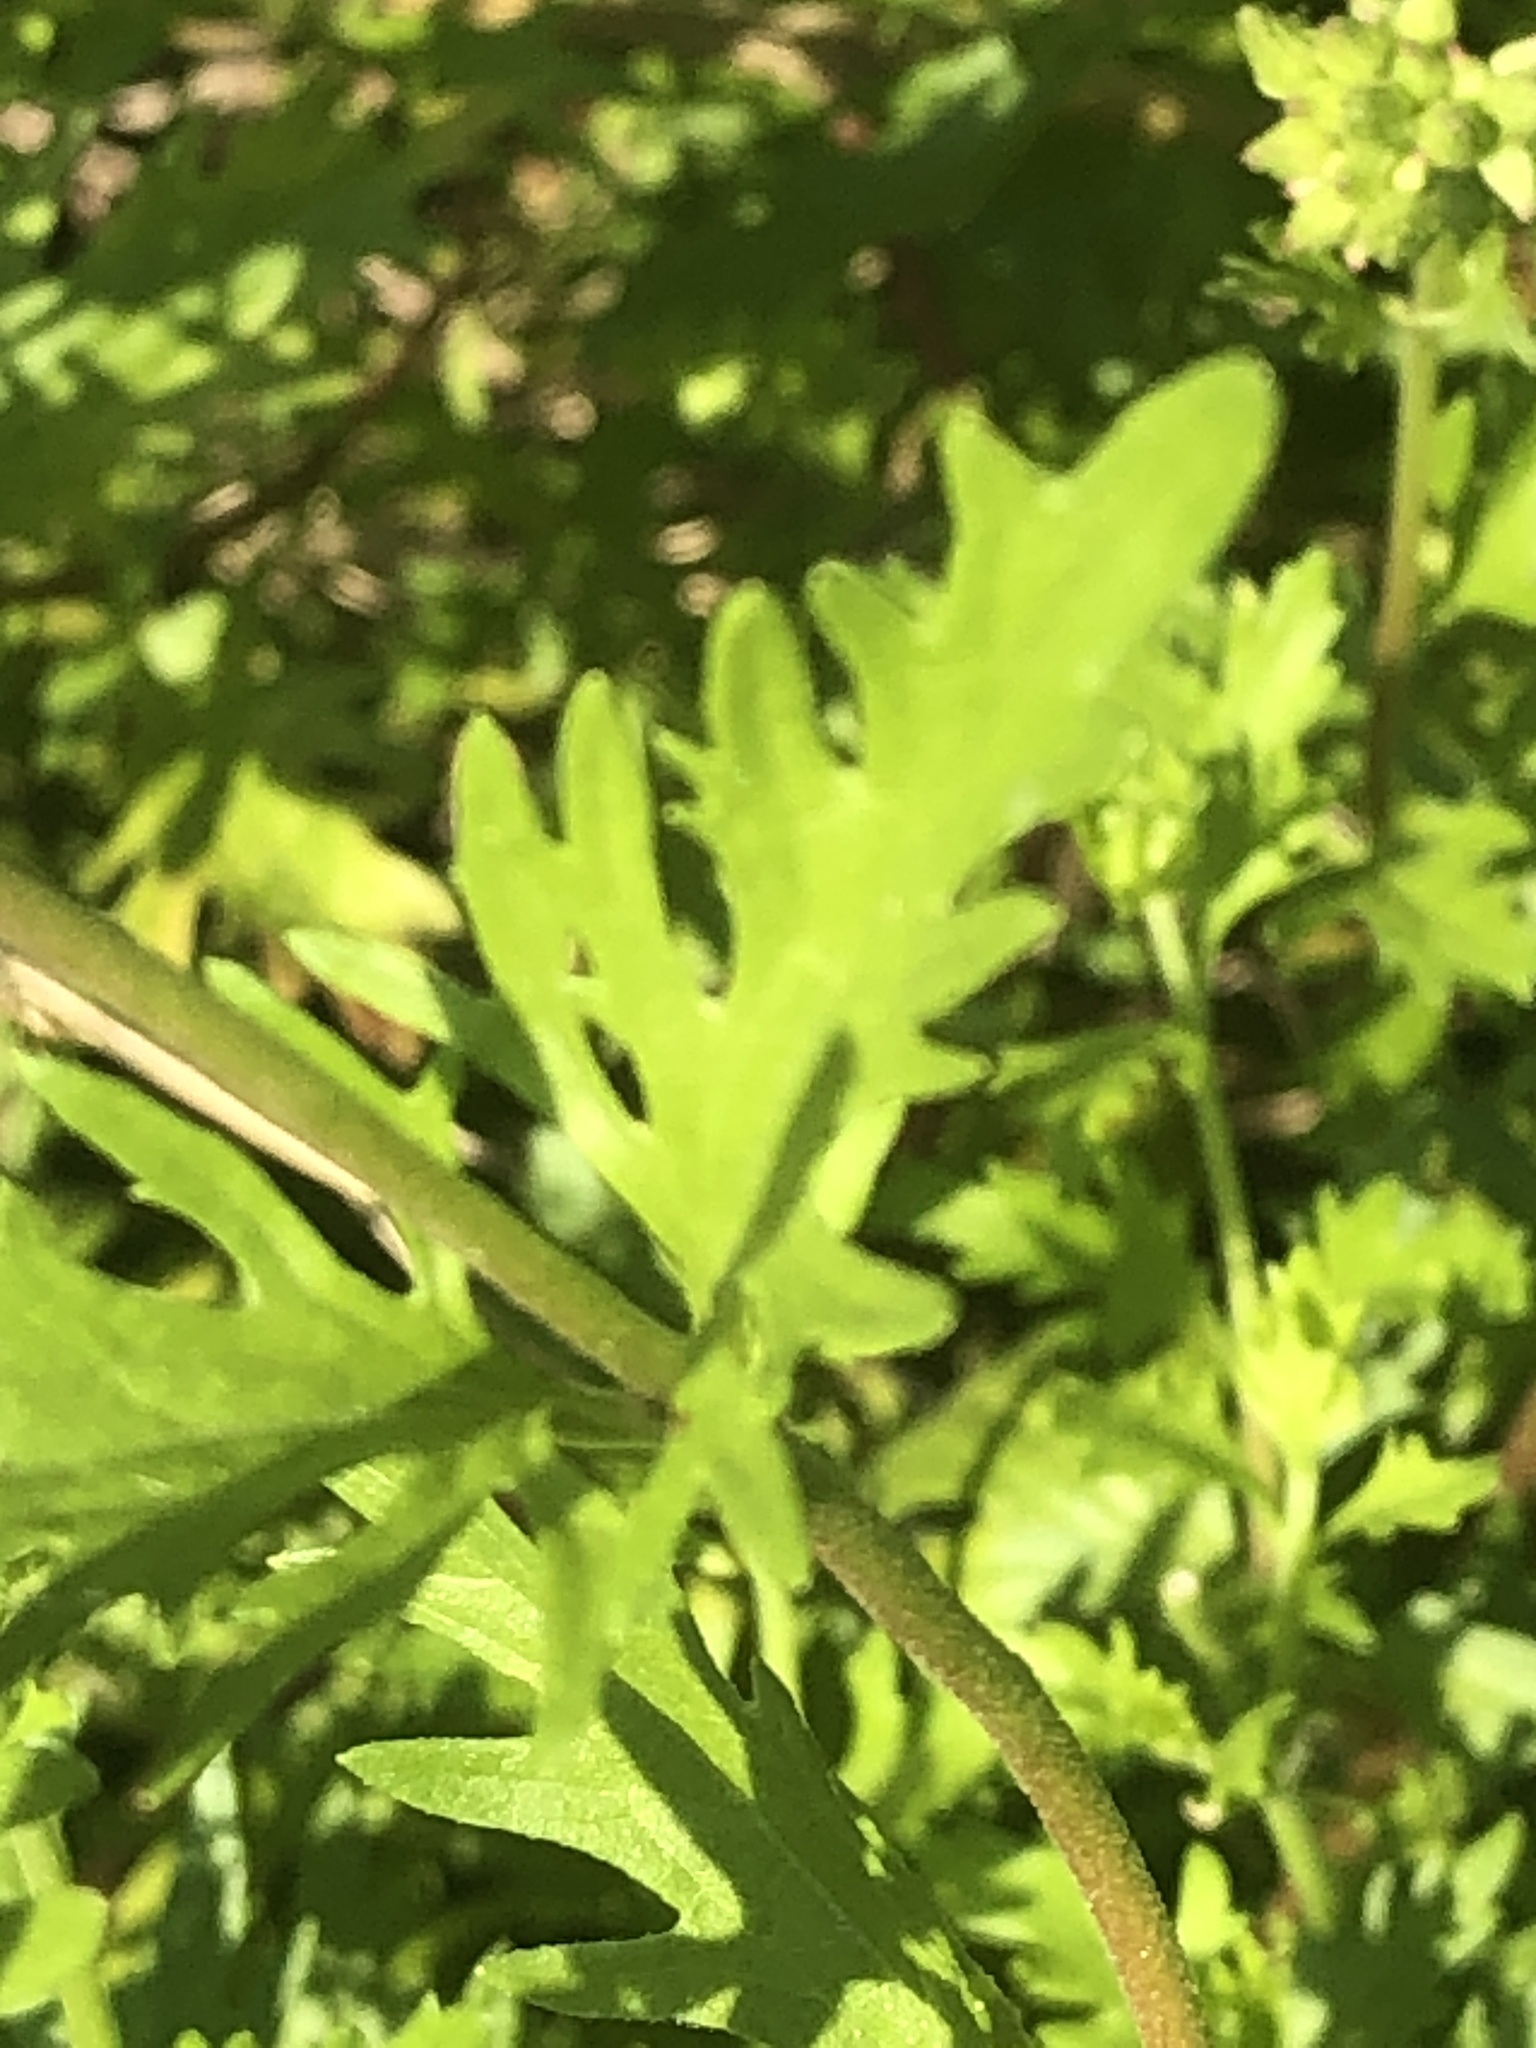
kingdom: Plantae
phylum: Tracheophyta
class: Magnoliopsida
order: Asterales
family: Asteraceae
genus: Conoclinium
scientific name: Conoclinium dissectum
